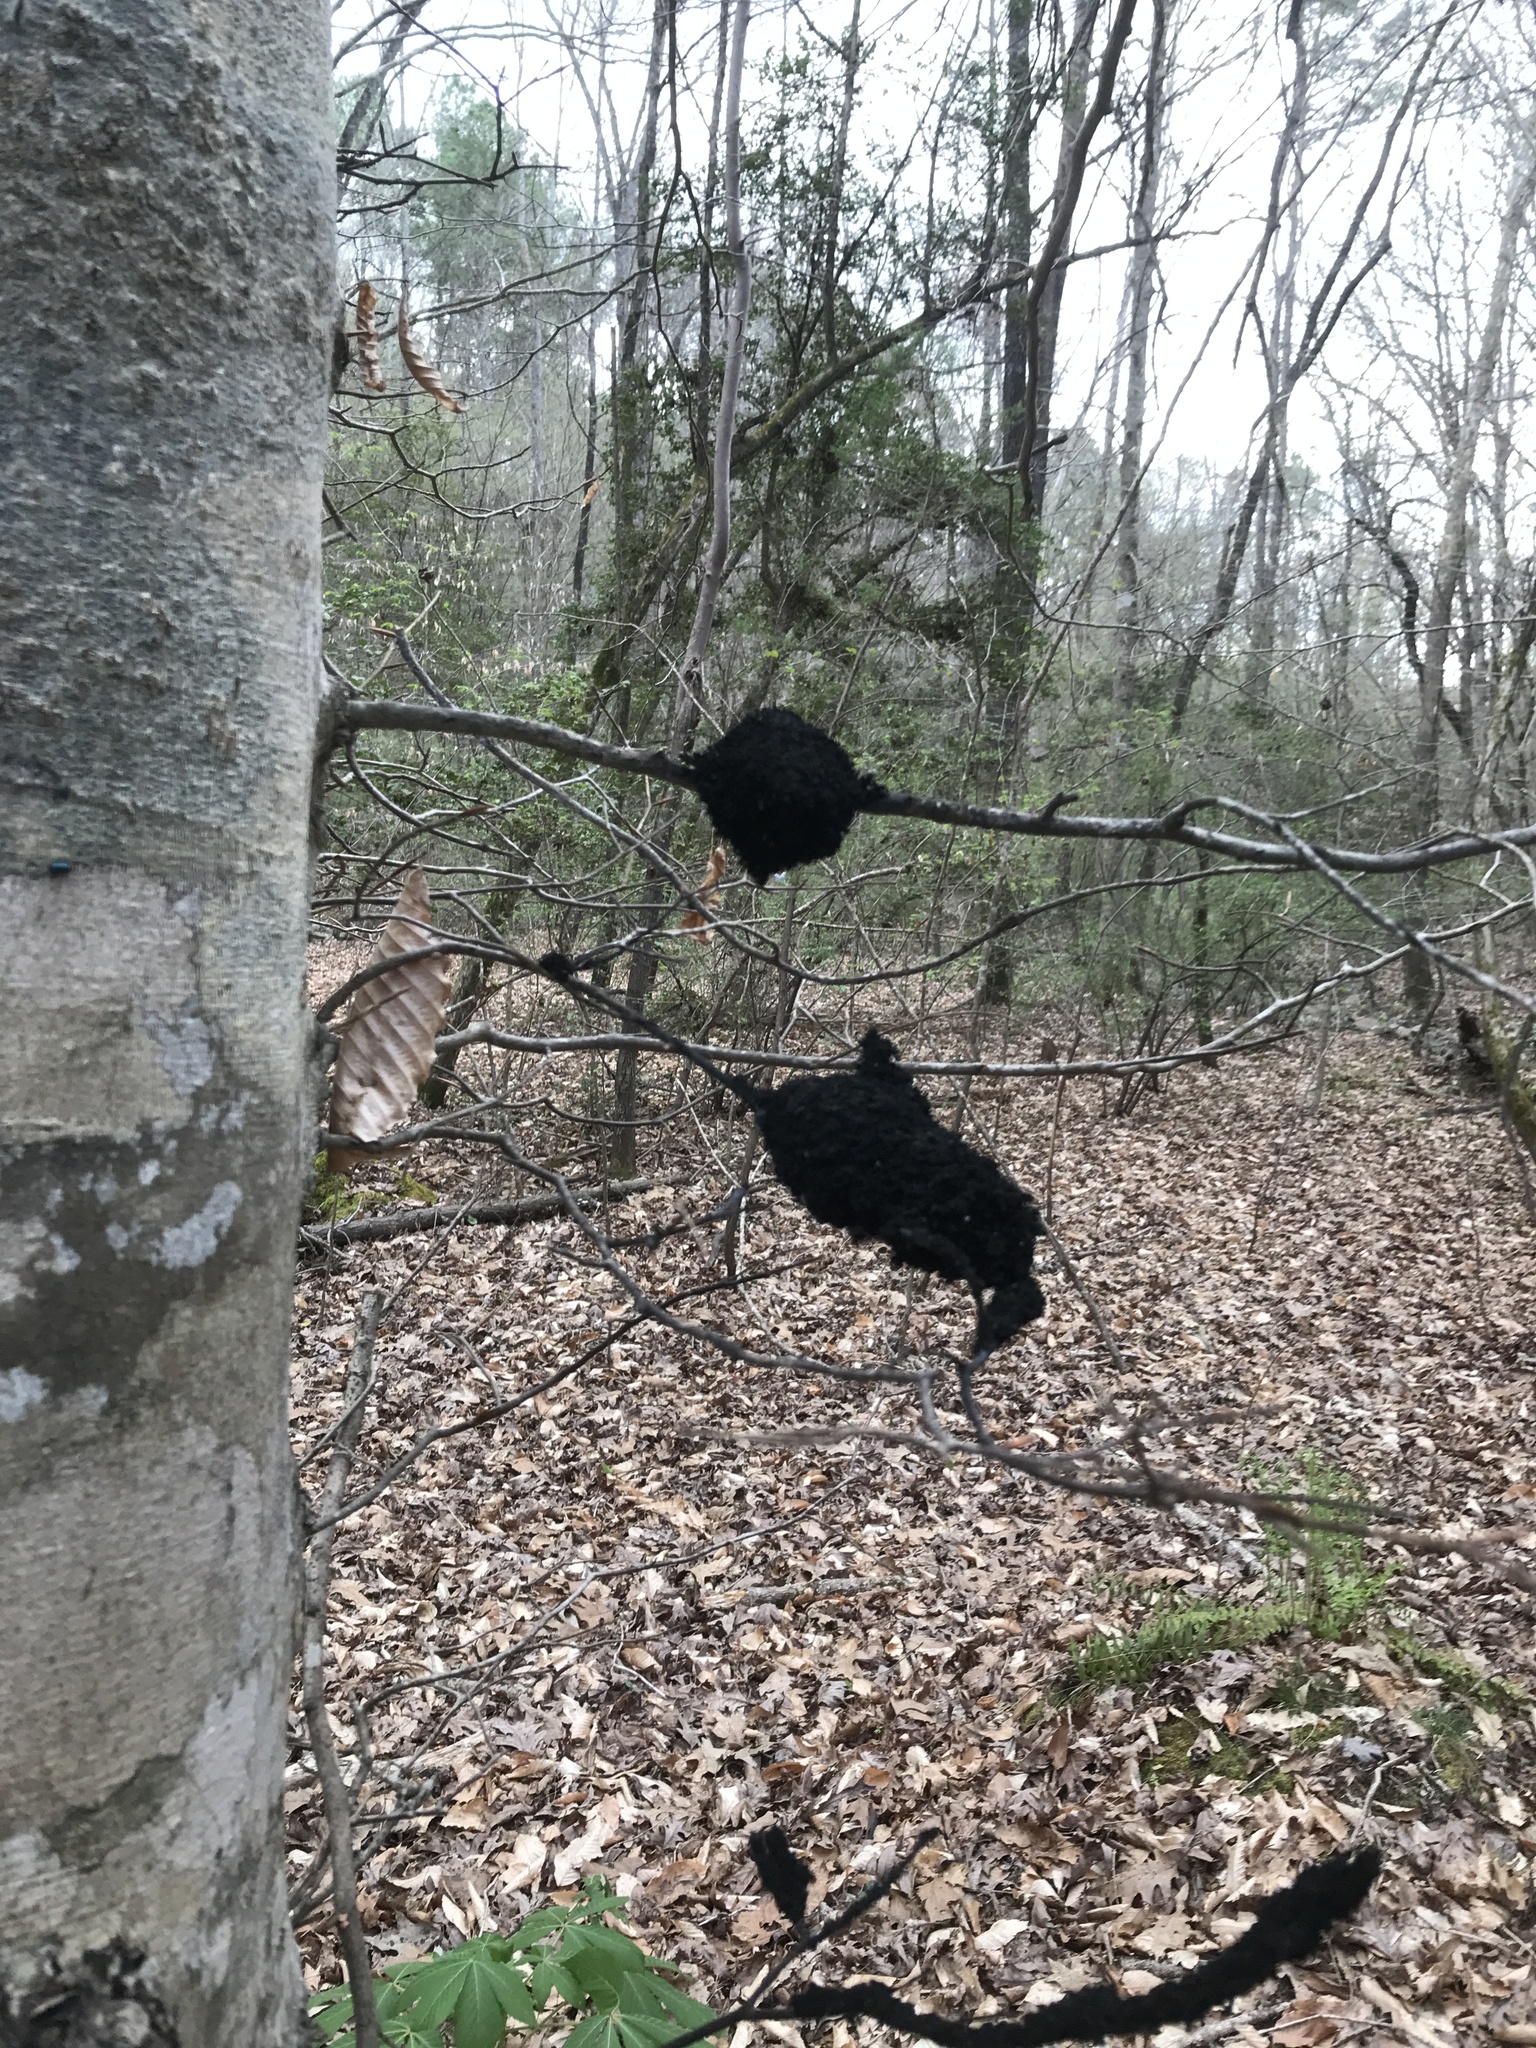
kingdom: Fungi
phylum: Ascomycota
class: Dothideomycetes
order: Capnodiales
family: Capnodiaceae
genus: Scorias
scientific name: Scorias spongiosa
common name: Black sooty mold
